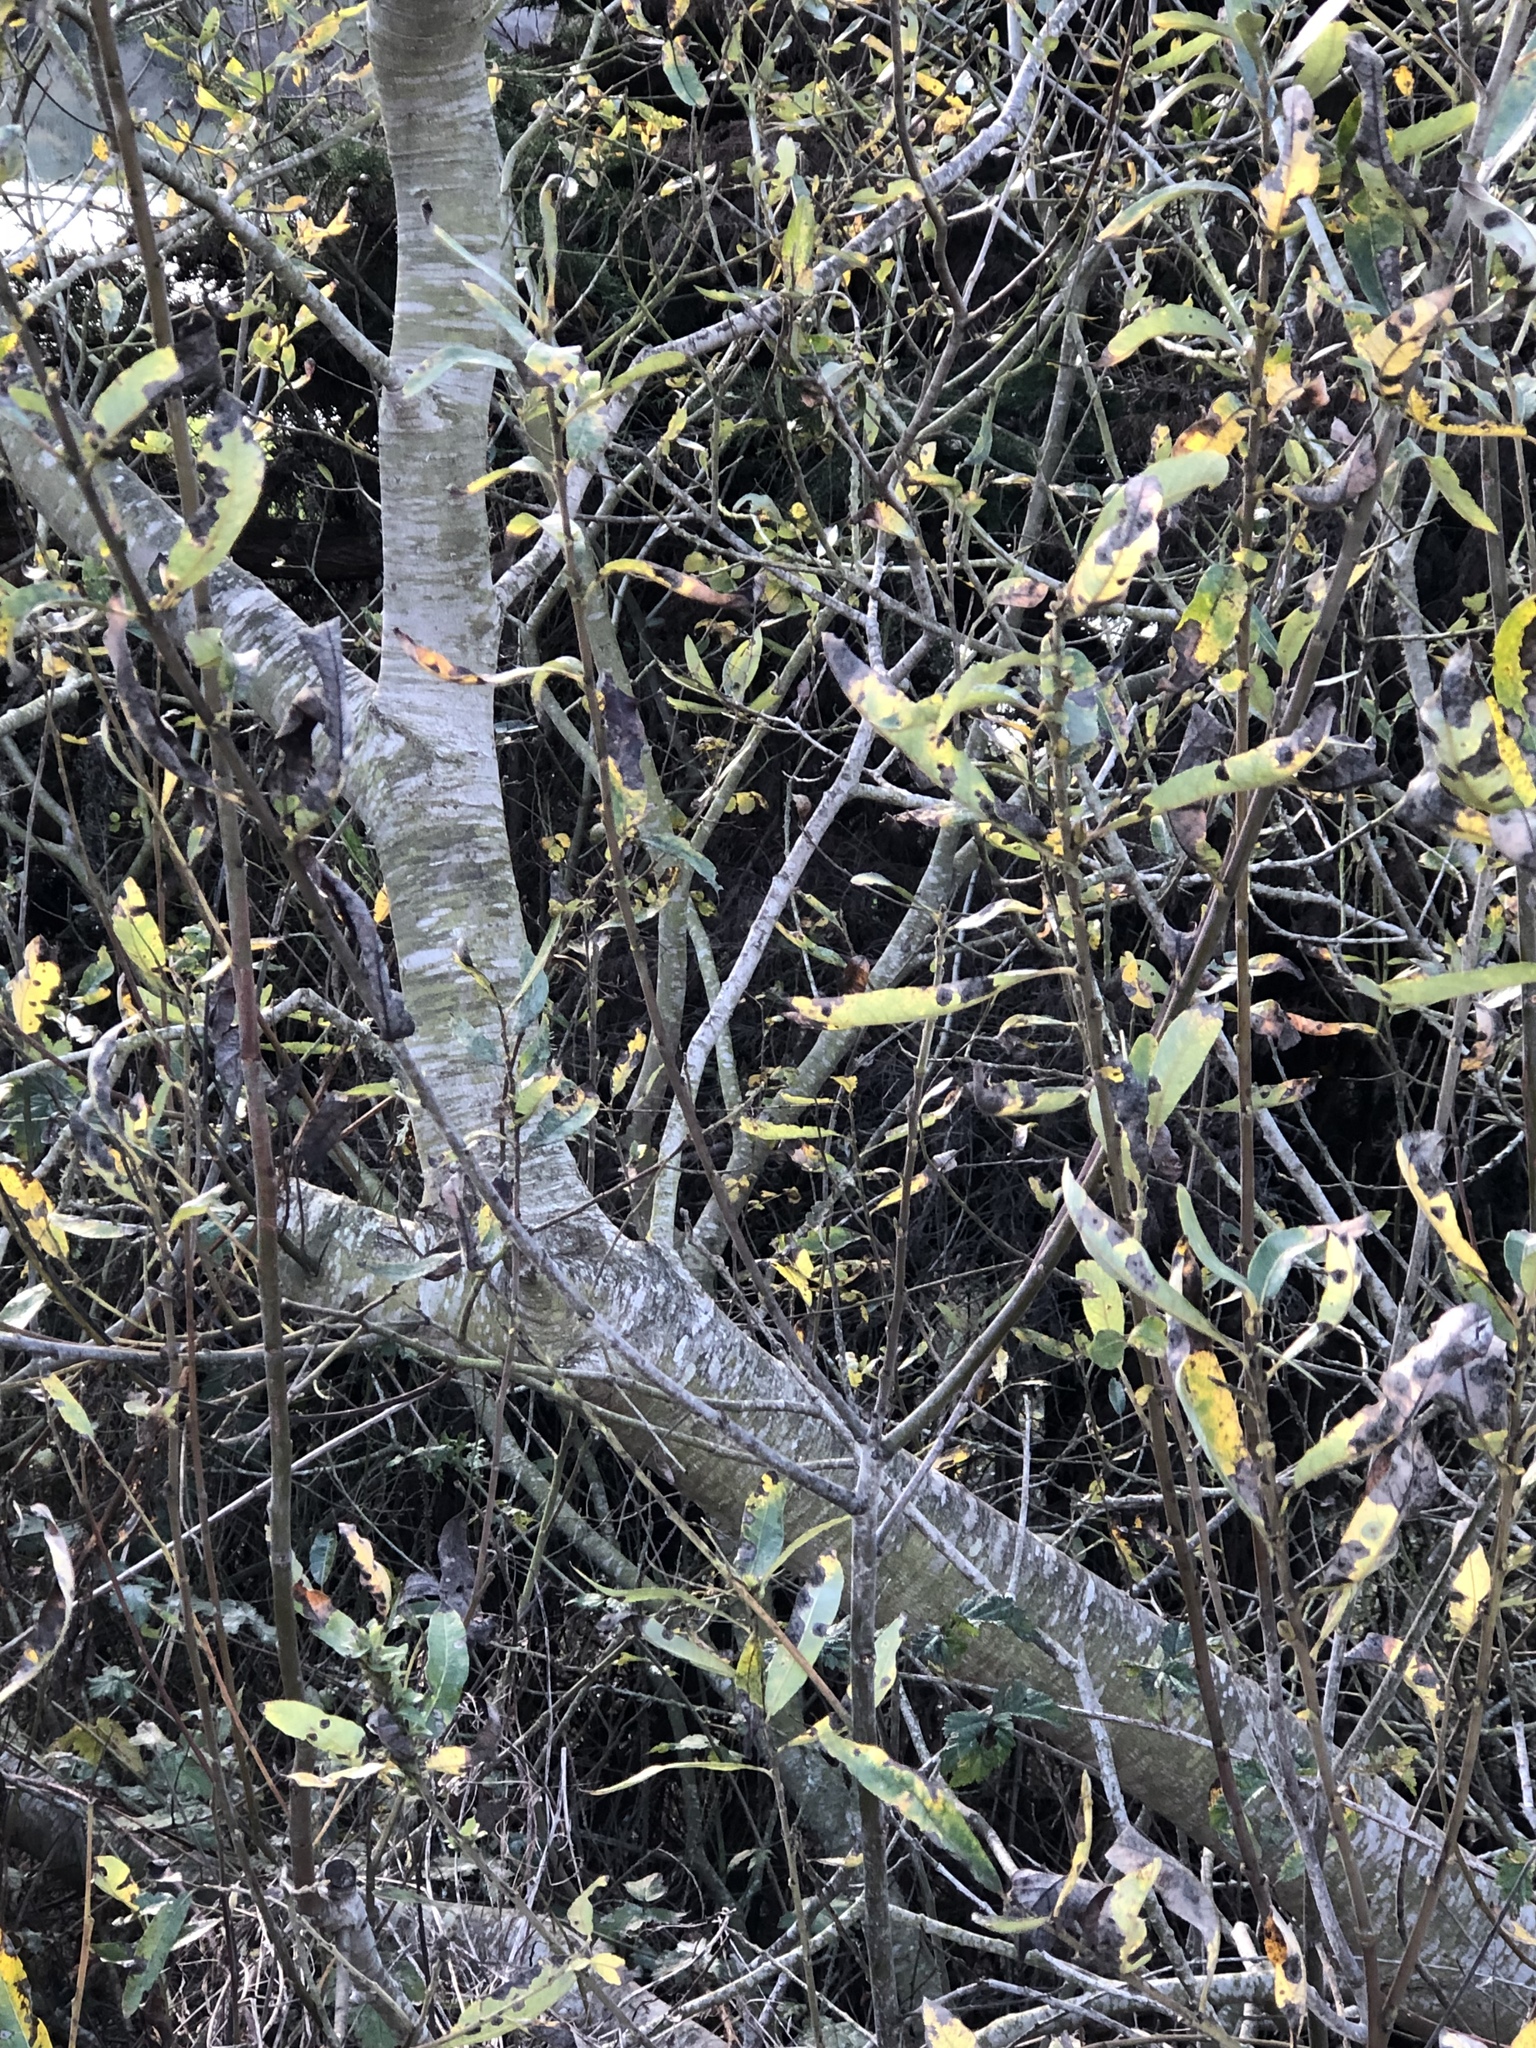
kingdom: Plantae
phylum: Tracheophyta
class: Magnoliopsida
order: Malpighiales
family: Salicaceae
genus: Salix
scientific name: Salix lasiolepis
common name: Arroyo willow
